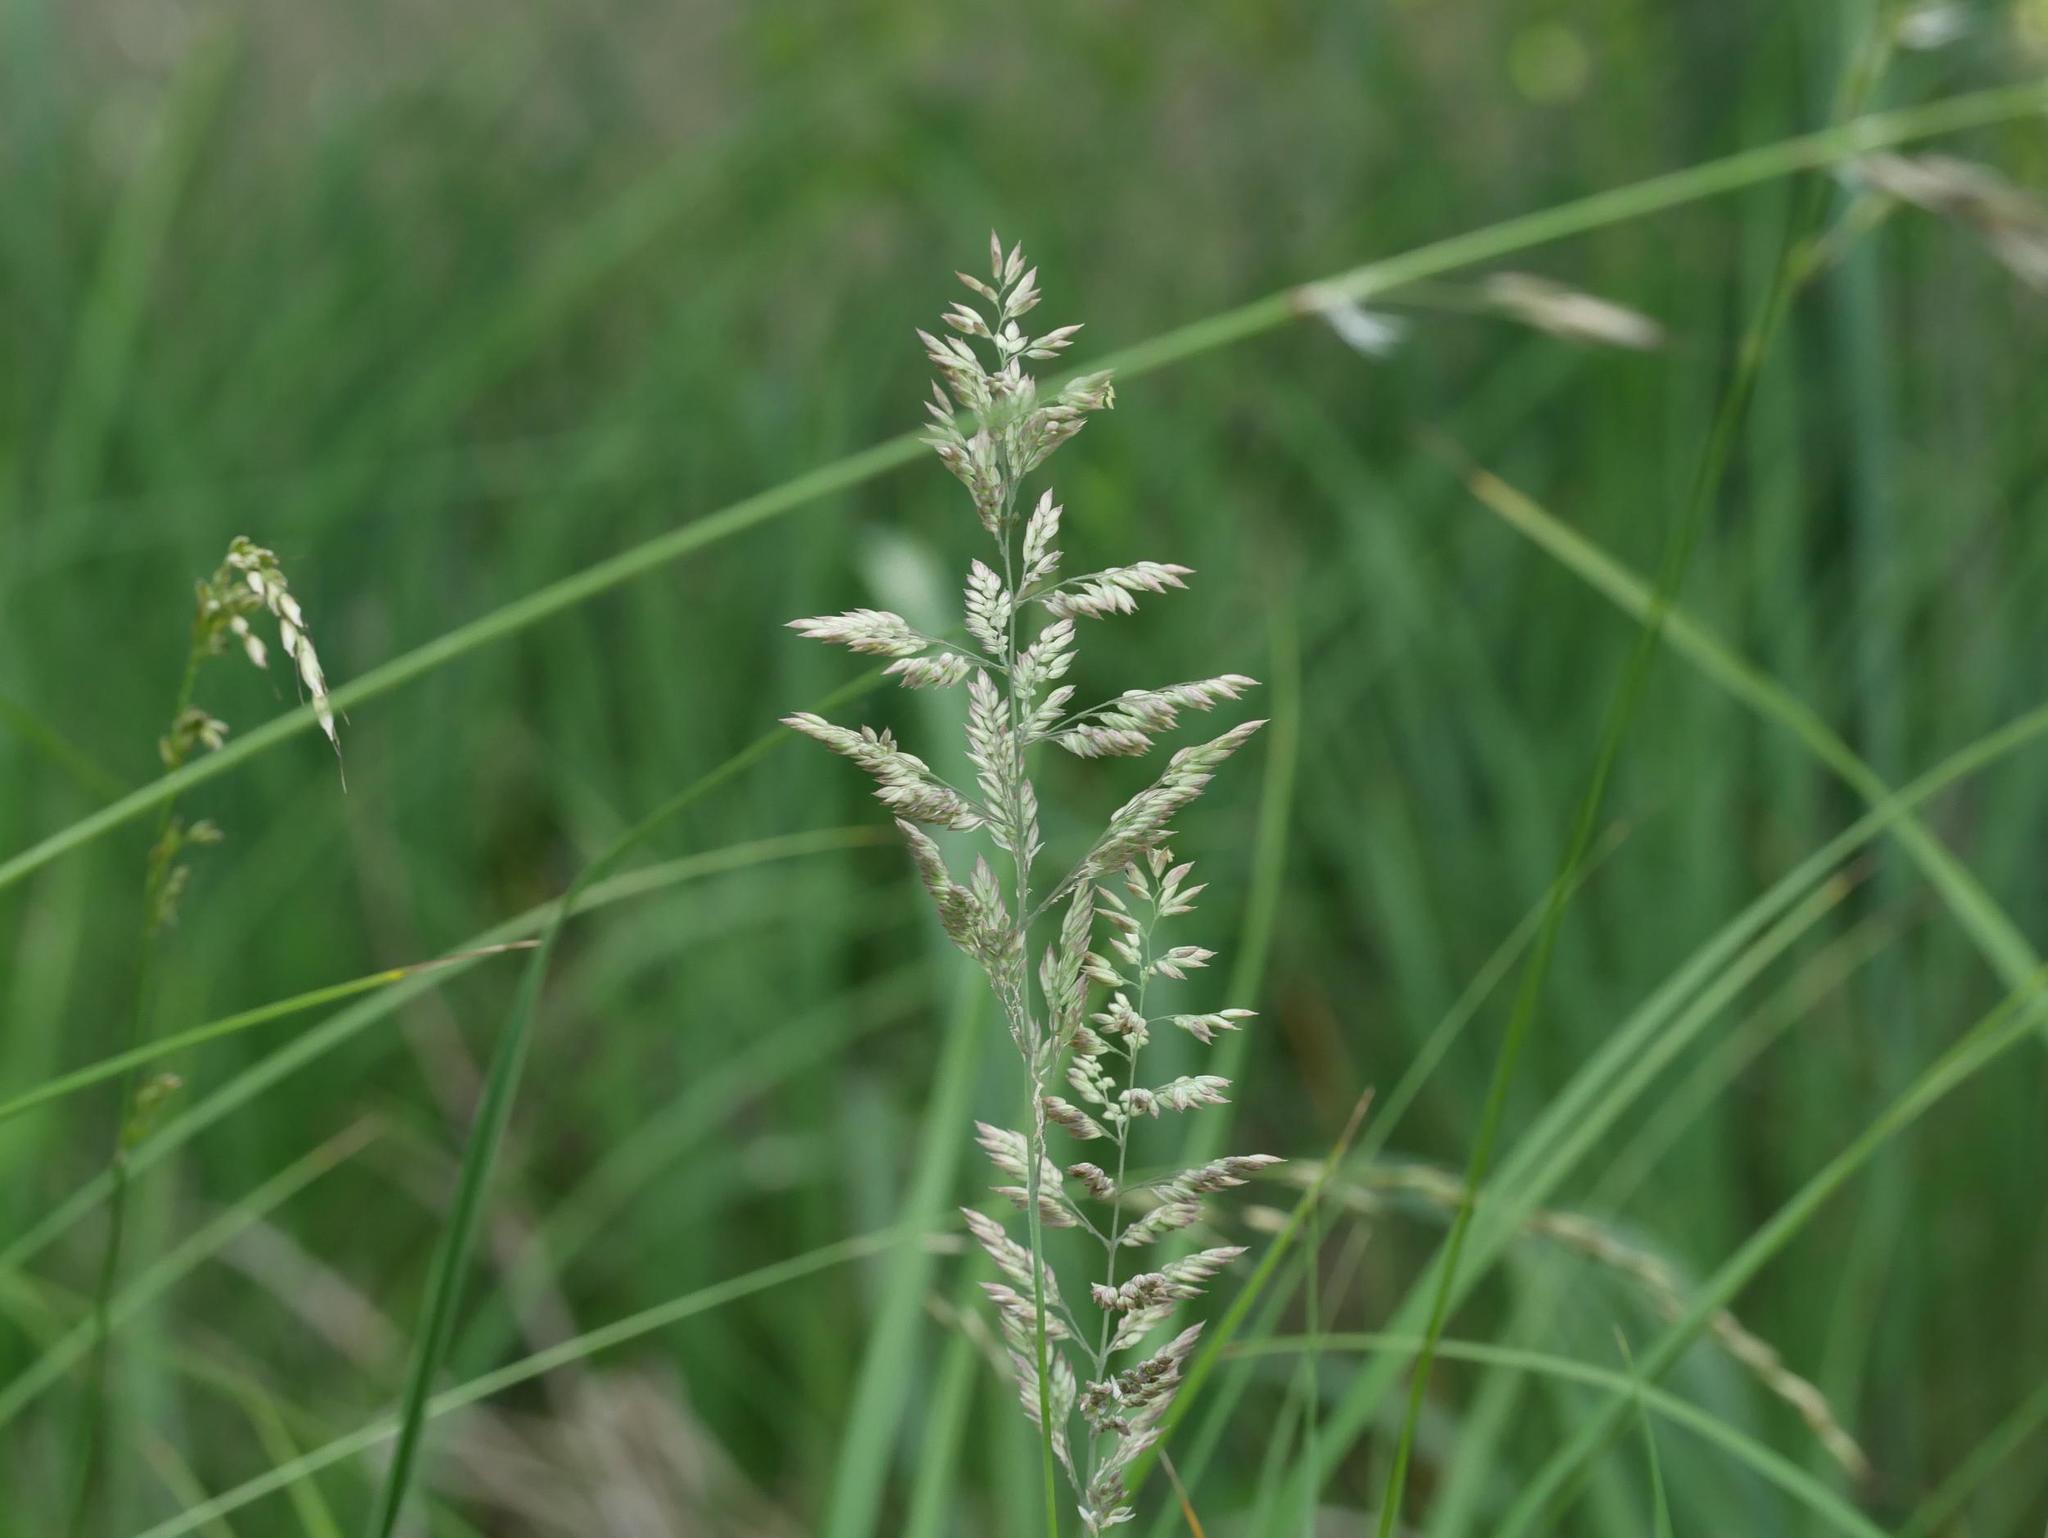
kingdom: Plantae
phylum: Tracheophyta
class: Liliopsida
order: Poales
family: Poaceae
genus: Holcus
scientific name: Holcus lanatus
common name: Yorkshire-fog
